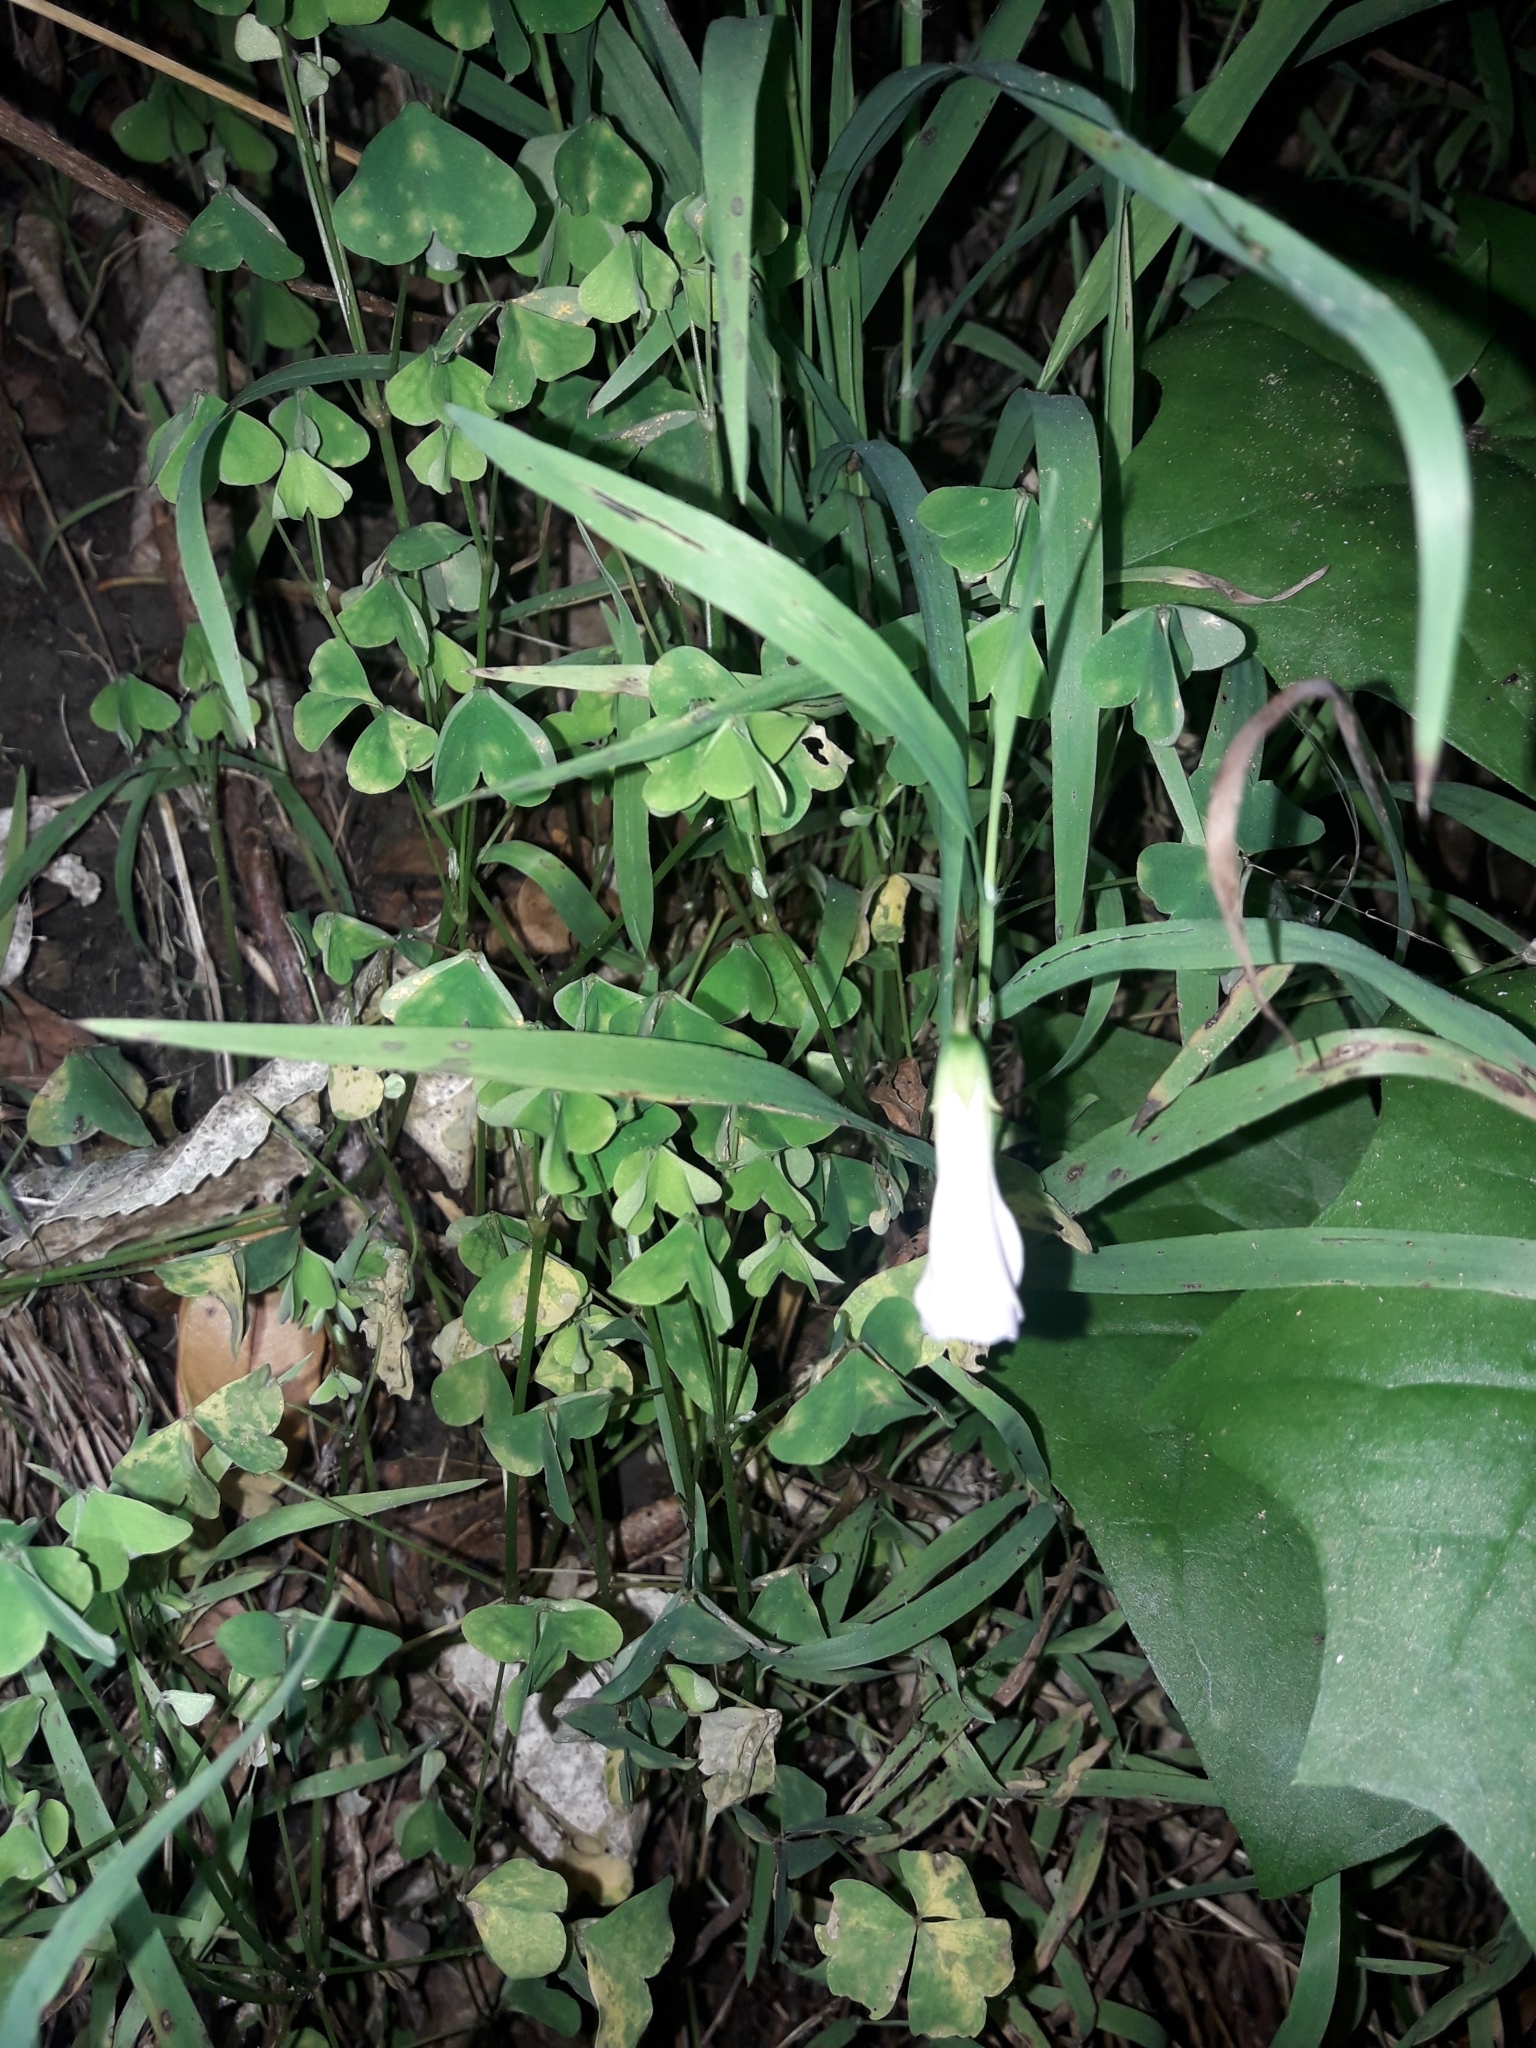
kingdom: Plantae
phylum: Tracheophyta
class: Magnoliopsida
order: Oxalidales
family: Oxalidaceae
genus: Oxalis
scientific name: Oxalis incarnata
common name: Pale pink-sorrel
